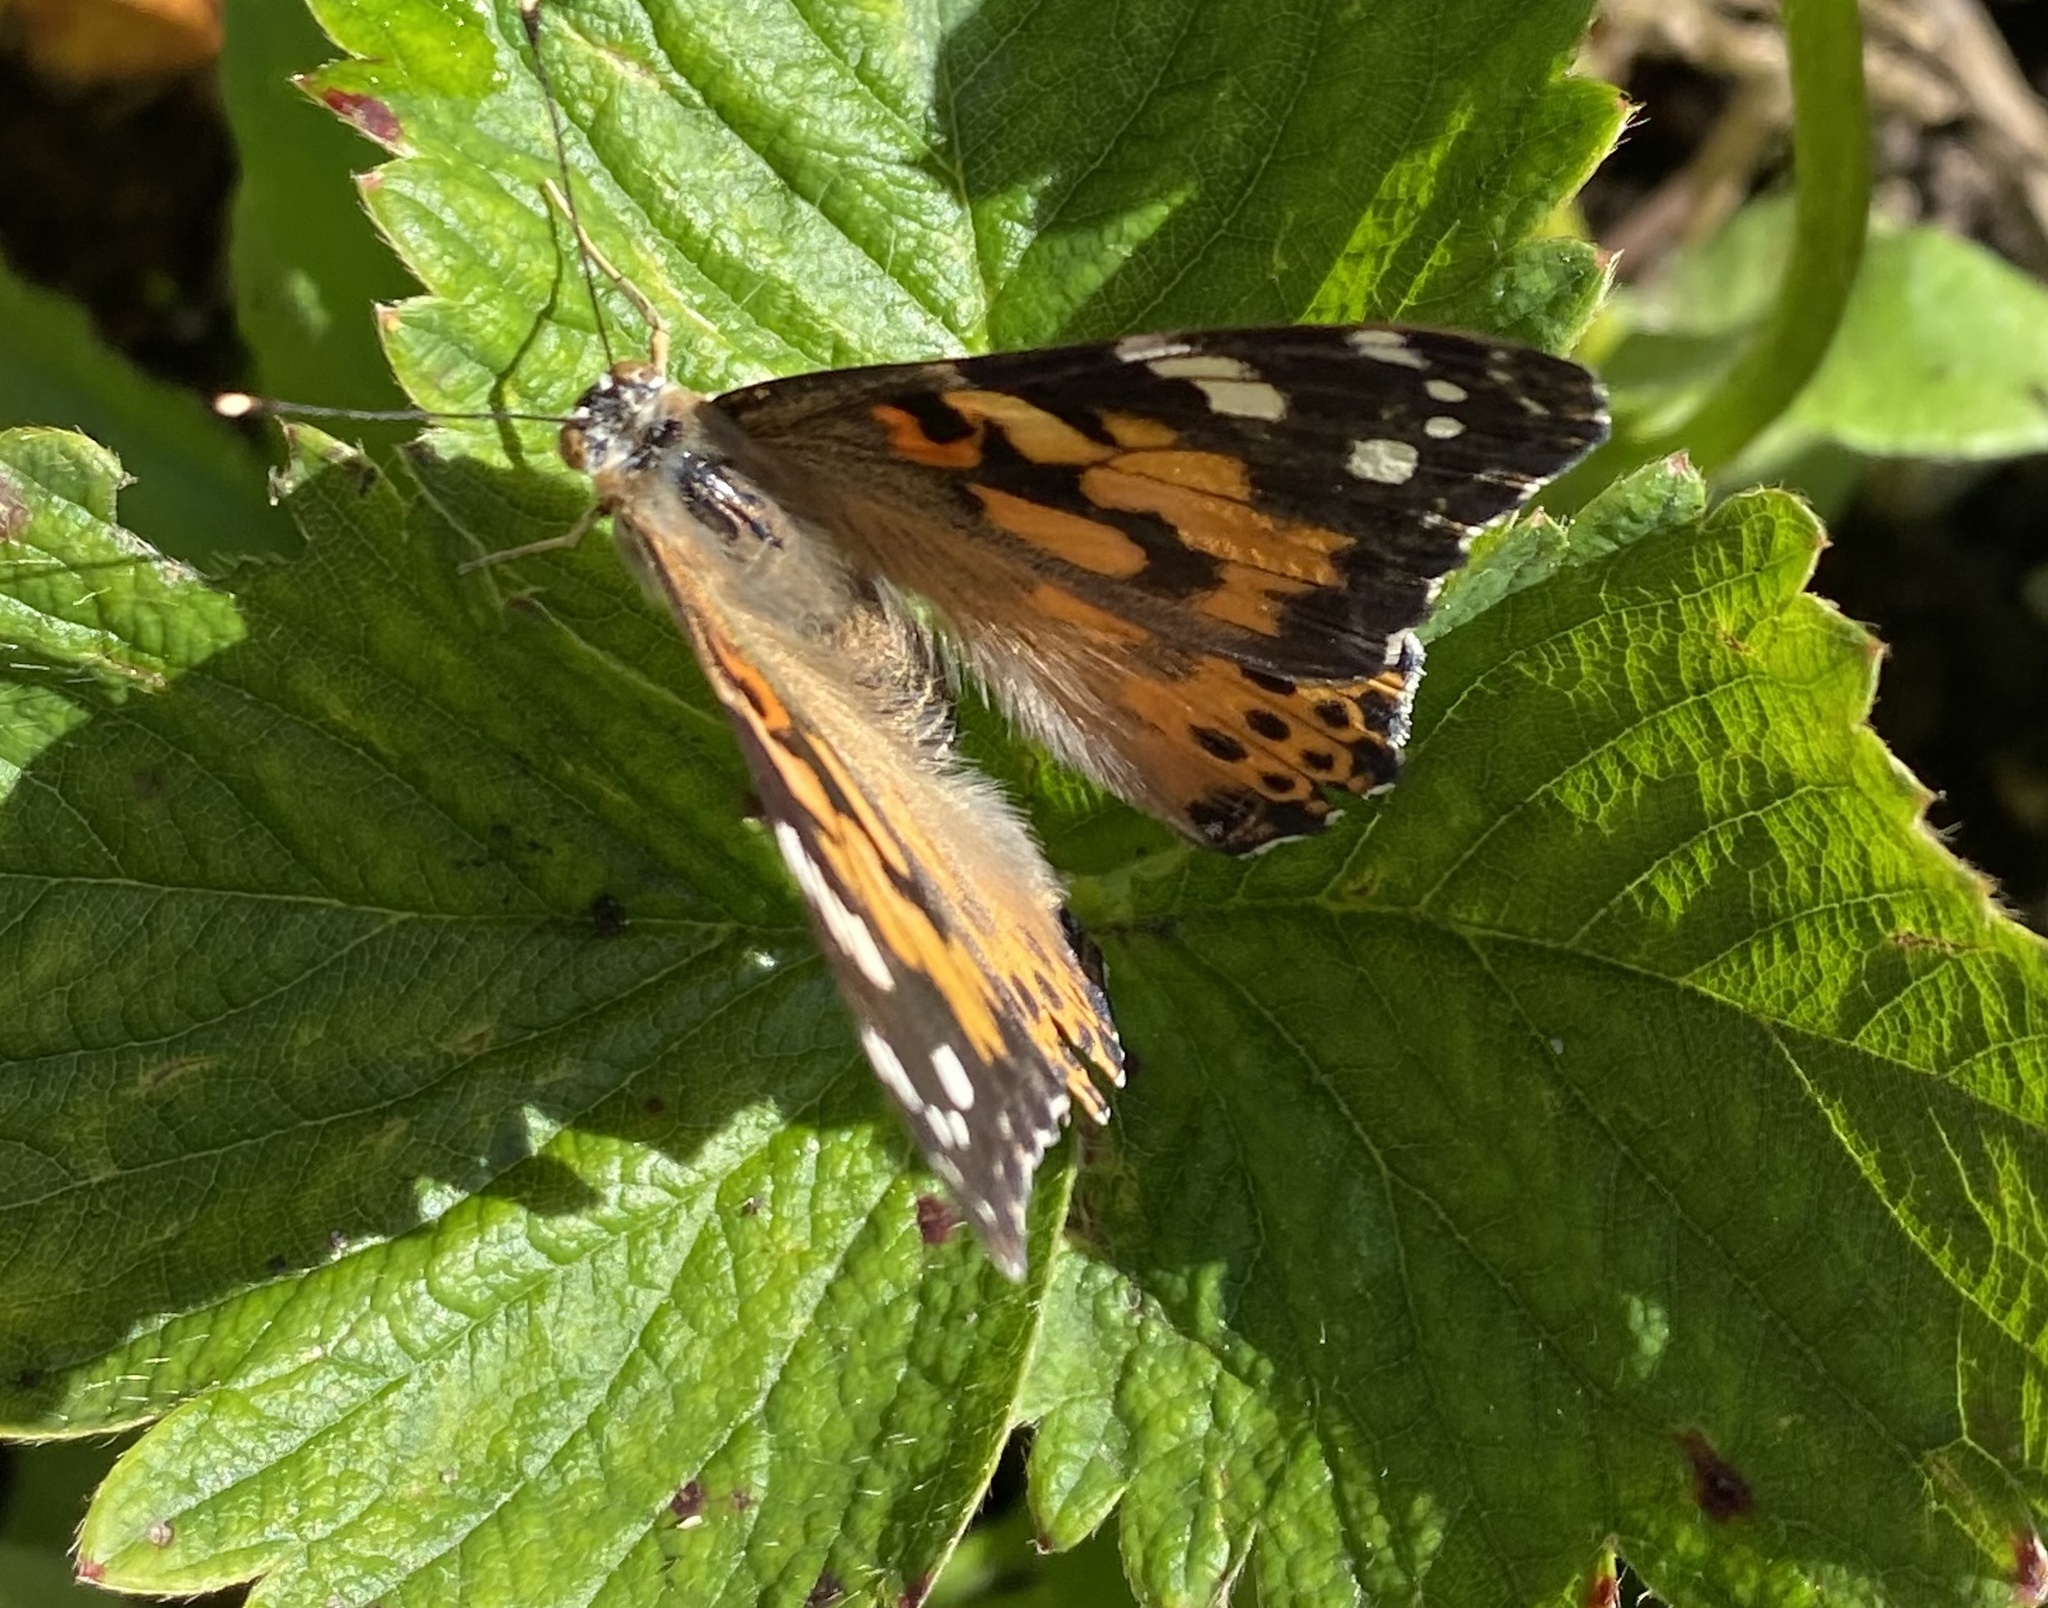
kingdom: Animalia
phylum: Arthropoda
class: Insecta
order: Lepidoptera
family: Nymphalidae
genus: Vanessa
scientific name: Vanessa cardui
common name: Painted lady
